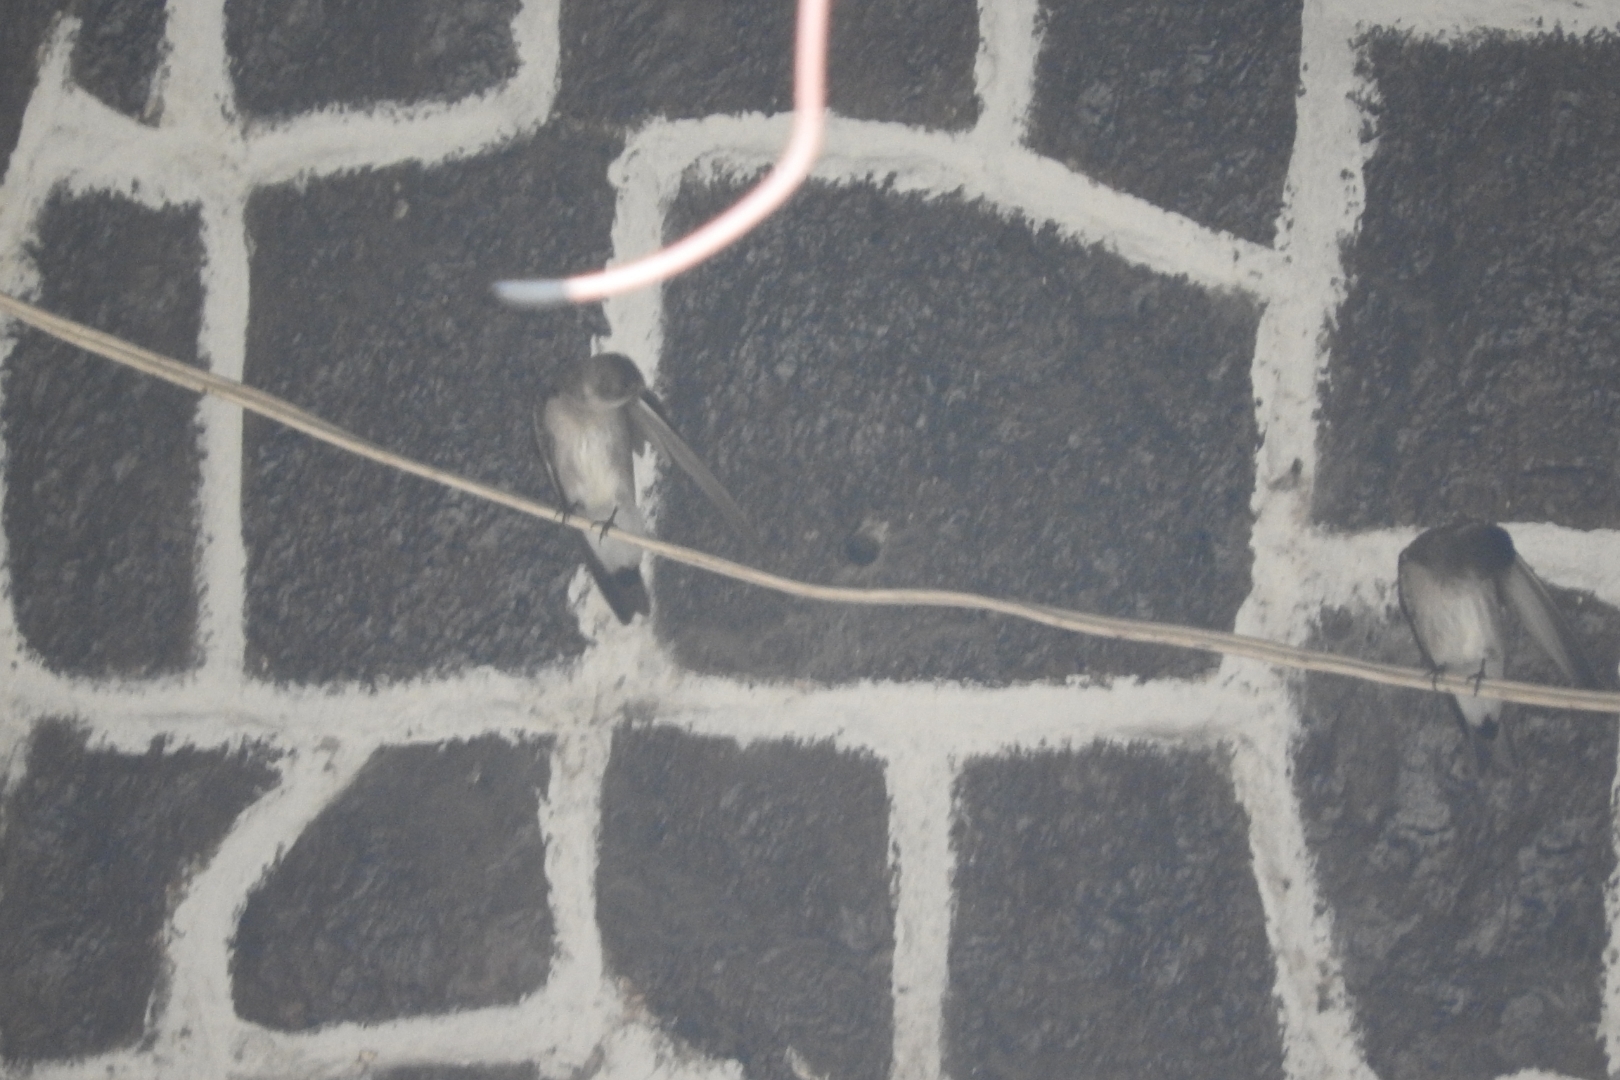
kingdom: Animalia
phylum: Chordata
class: Aves
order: Passeriformes
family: Hirundinidae
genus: Stelgidopteryx
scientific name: Stelgidopteryx serripennis
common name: Northern rough-winged swallow
